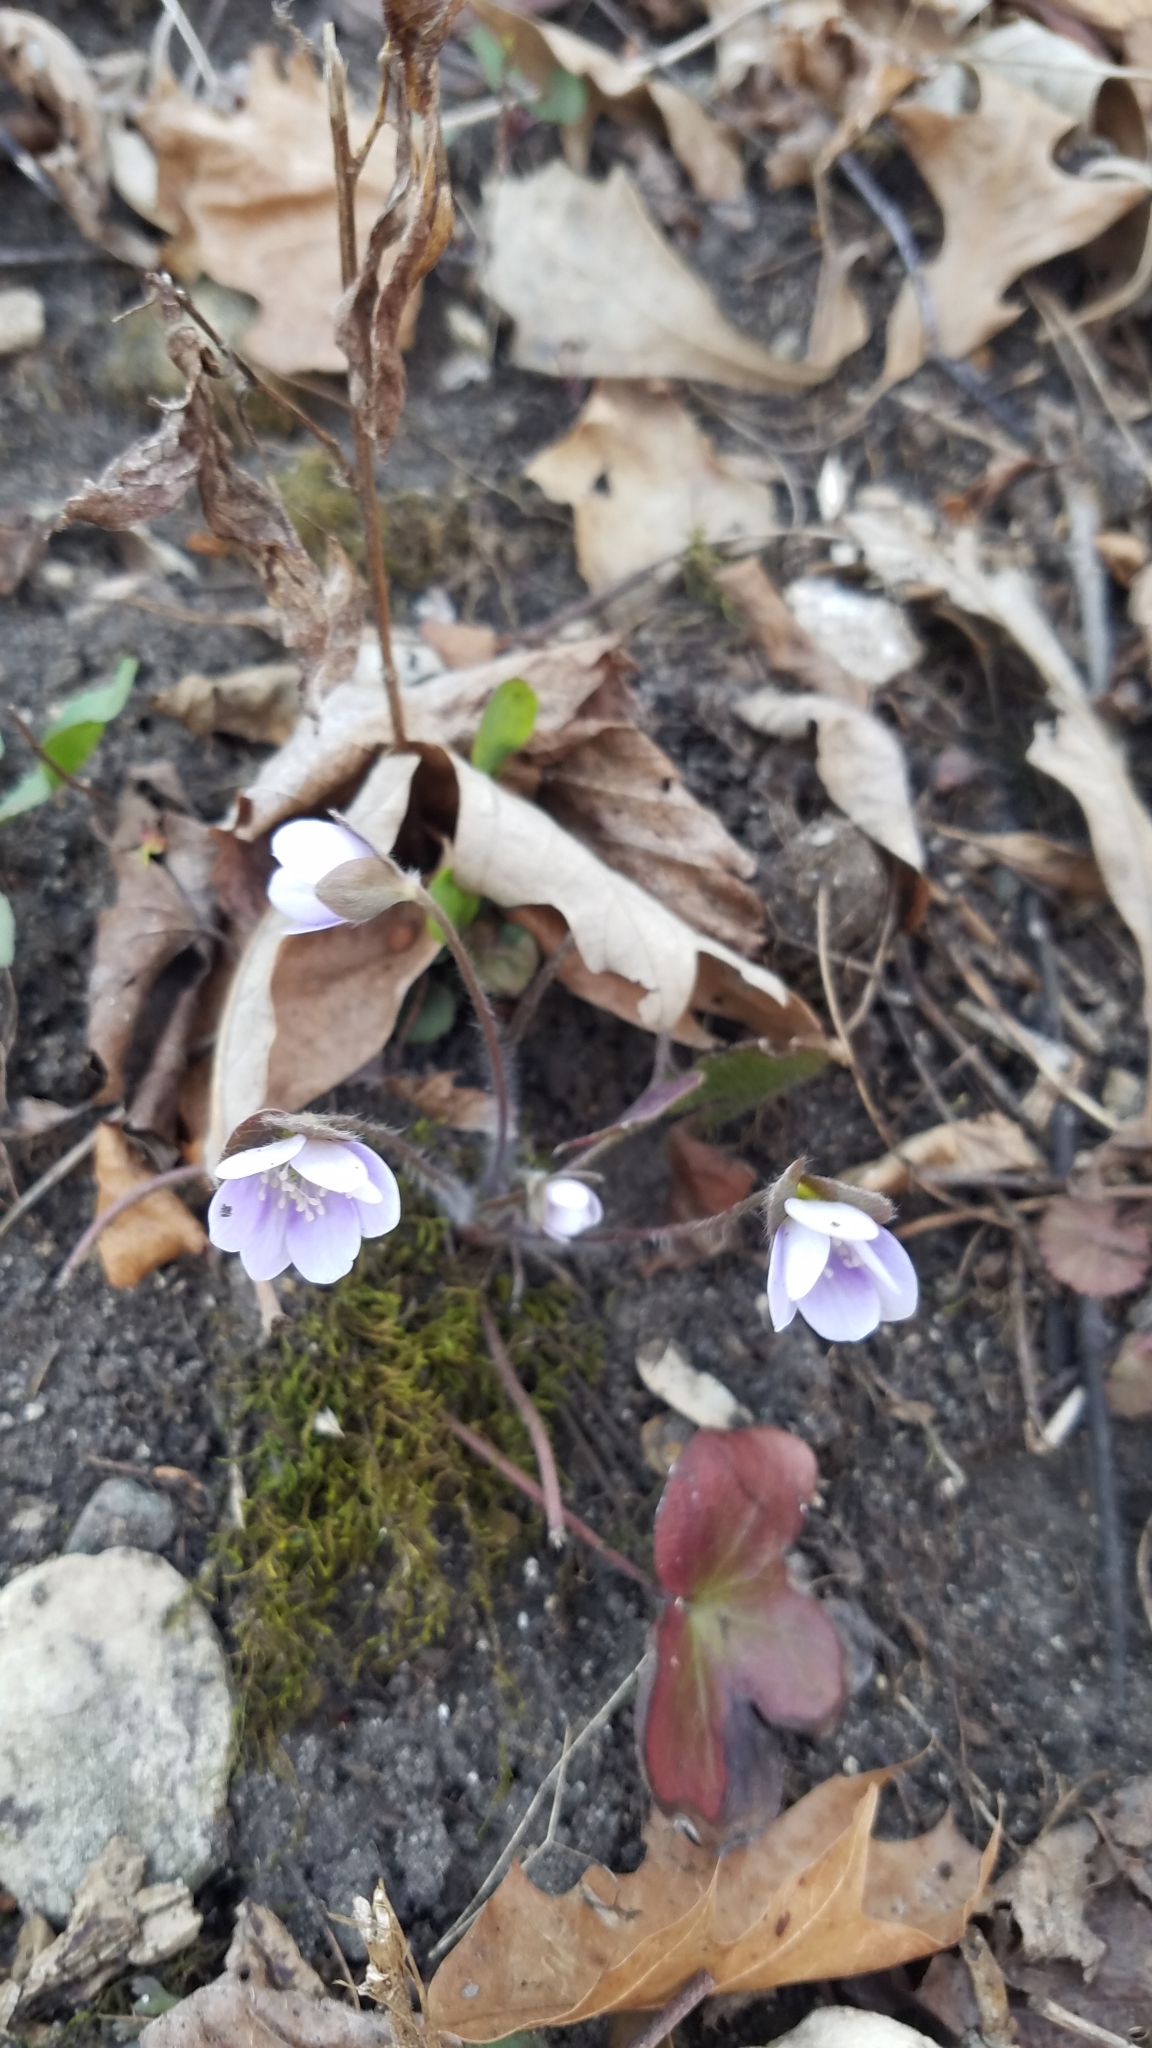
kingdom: Plantae
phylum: Tracheophyta
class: Magnoliopsida
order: Ranunculales
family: Ranunculaceae
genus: Hepatica
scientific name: Hepatica americana
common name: American hepatica
